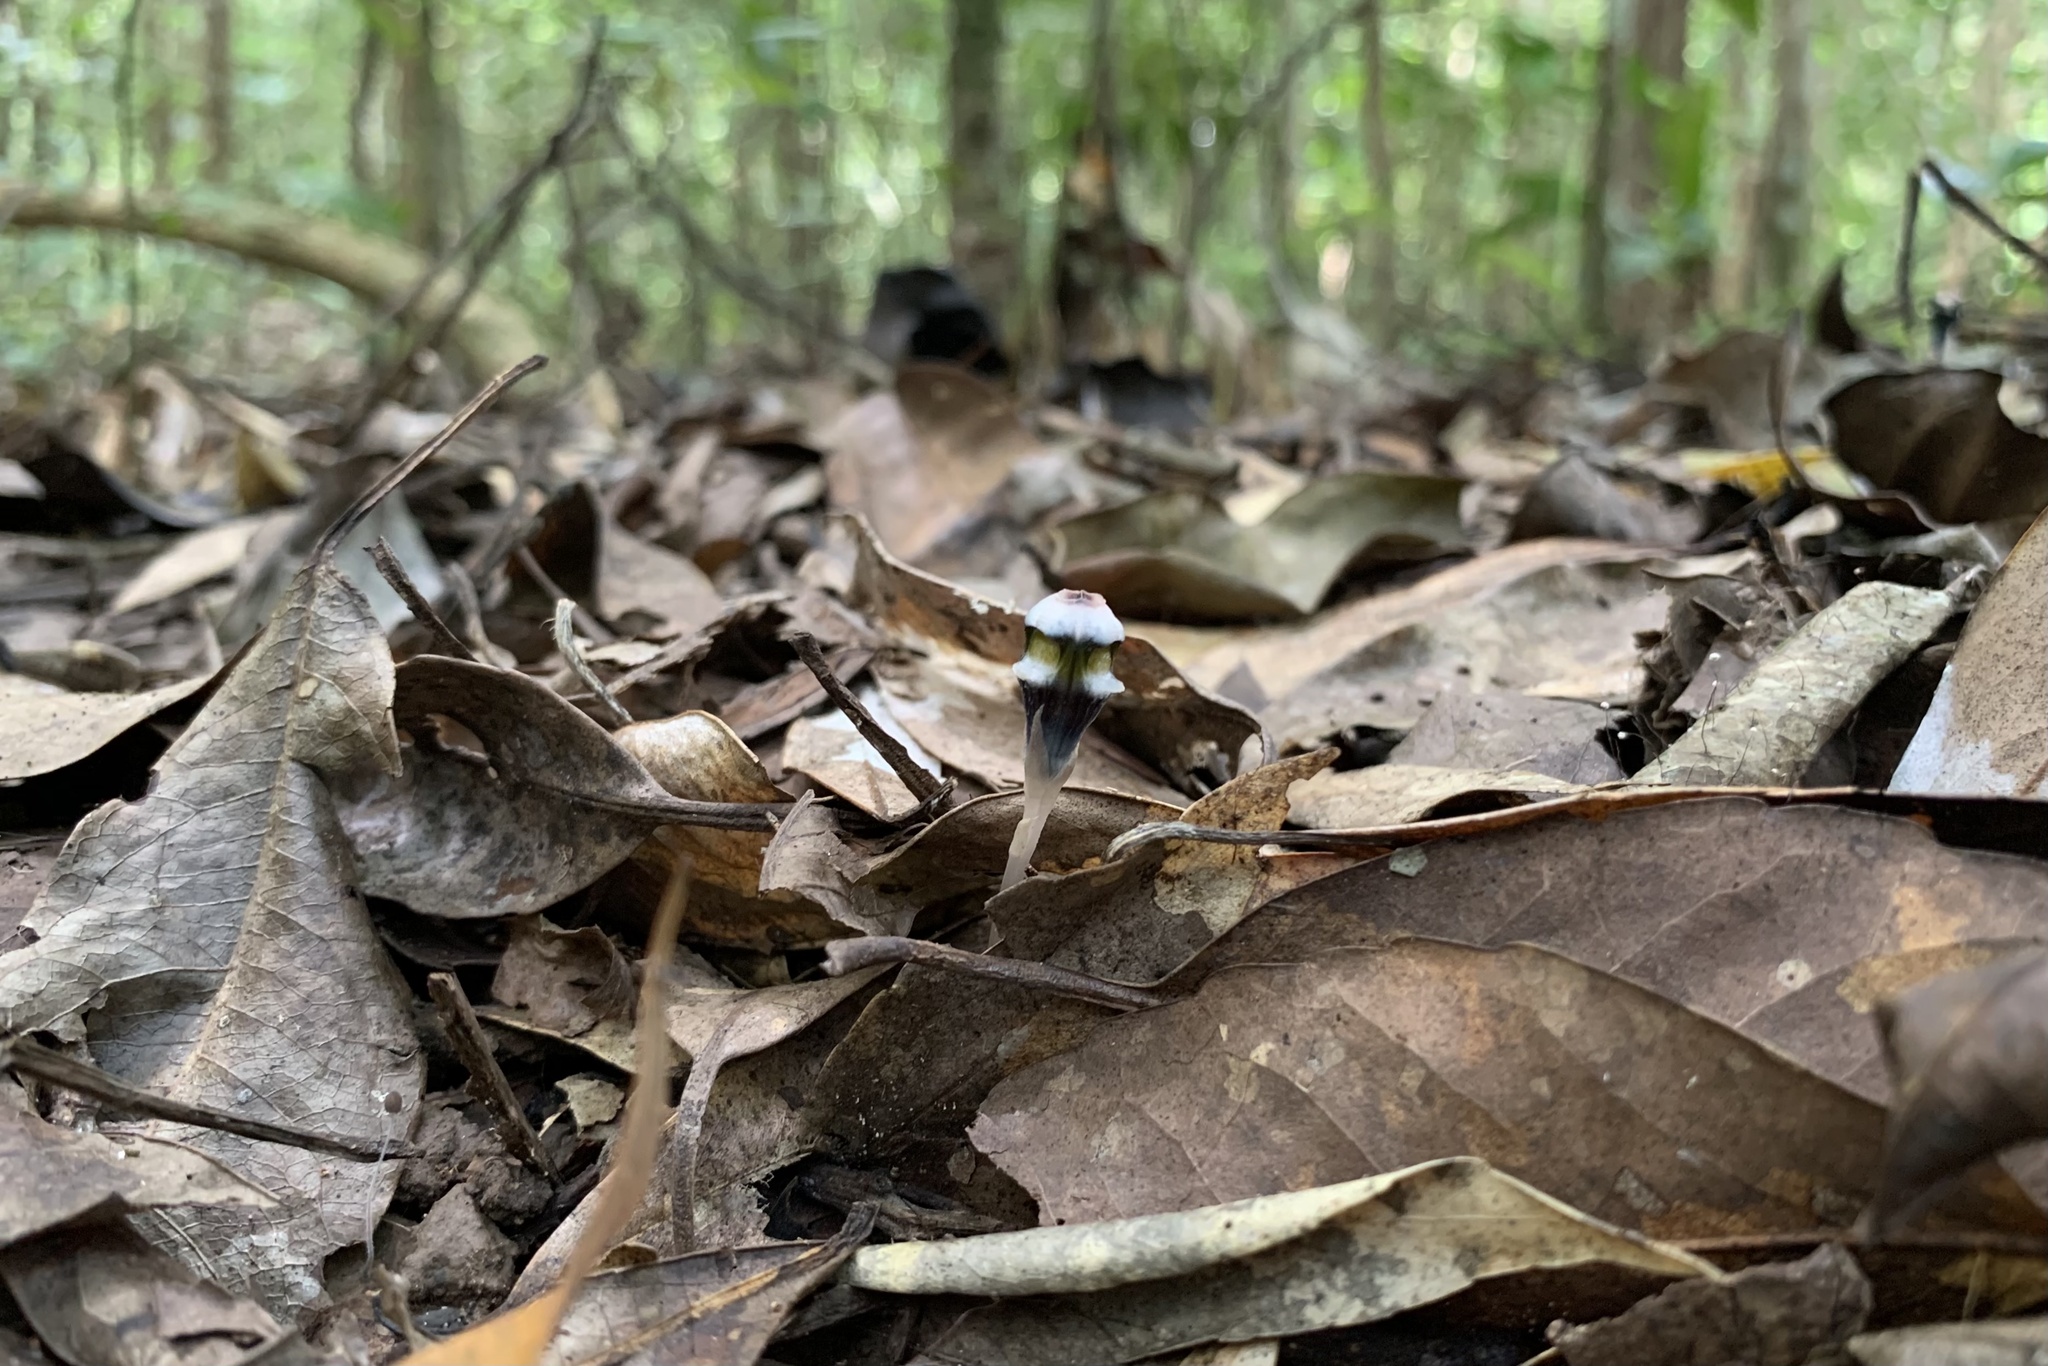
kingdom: Plantae
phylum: Tracheophyta
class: Liliopsida
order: Dioscoreales
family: Burmanniaceae
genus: Thismia
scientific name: Thismia mirabilis
